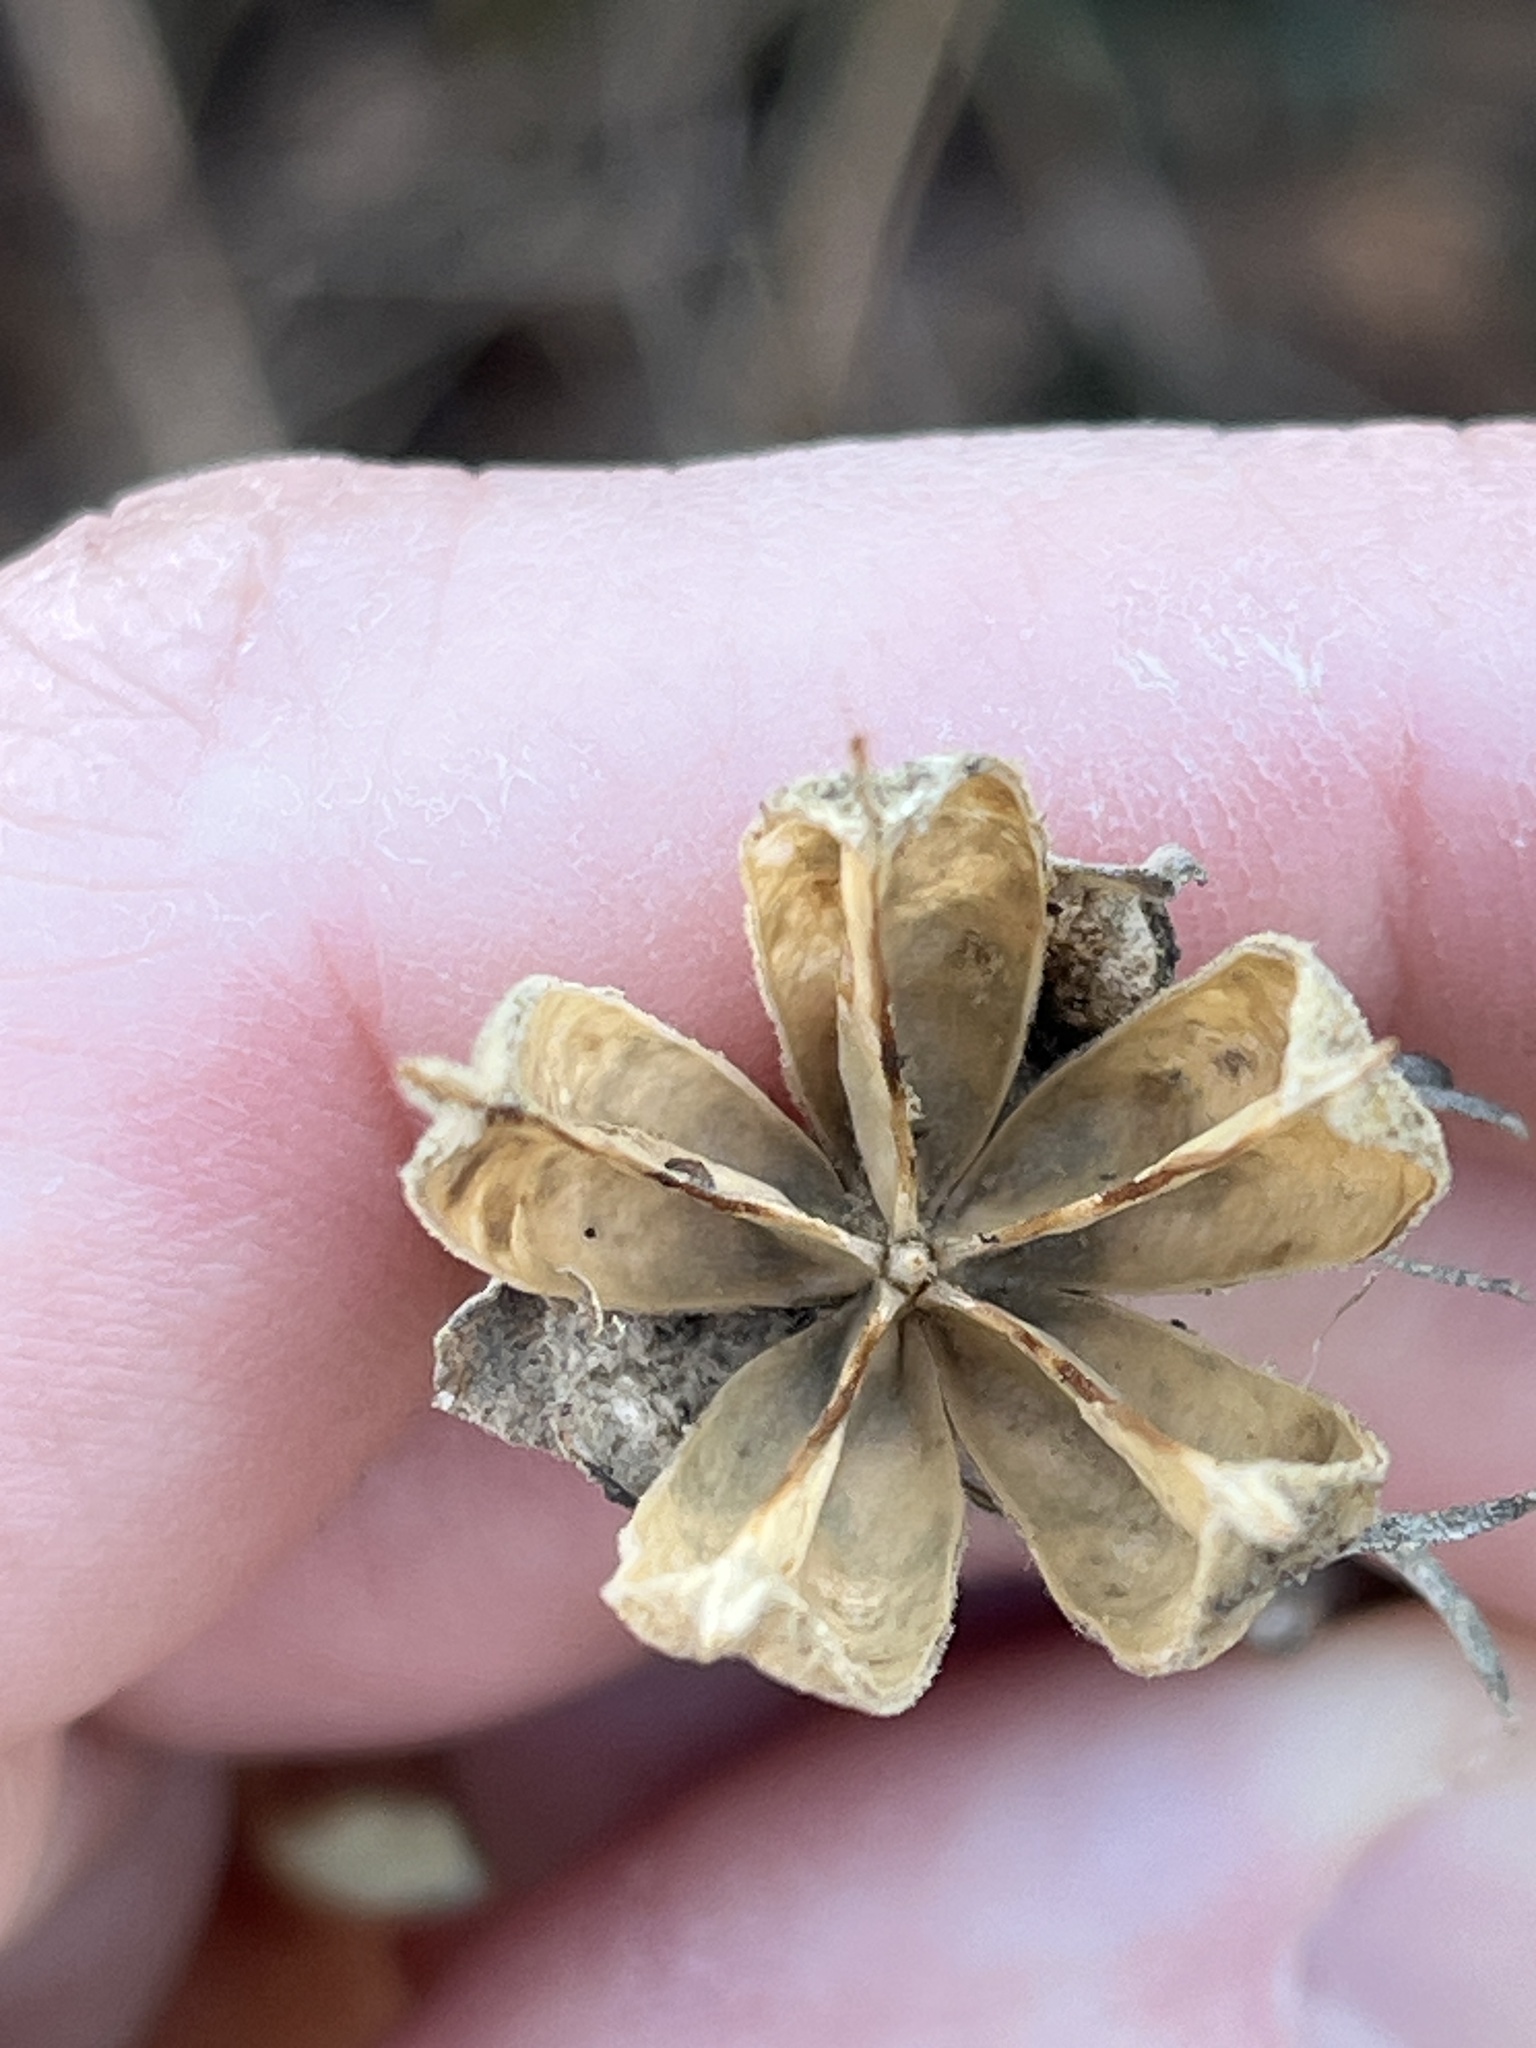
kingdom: Plantae
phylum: Tracheophyta
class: Magnoliopsida
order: Malvales
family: Malvaceae
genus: Hibiscus
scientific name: Hibiscus syriacus
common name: Syrian ketmia
